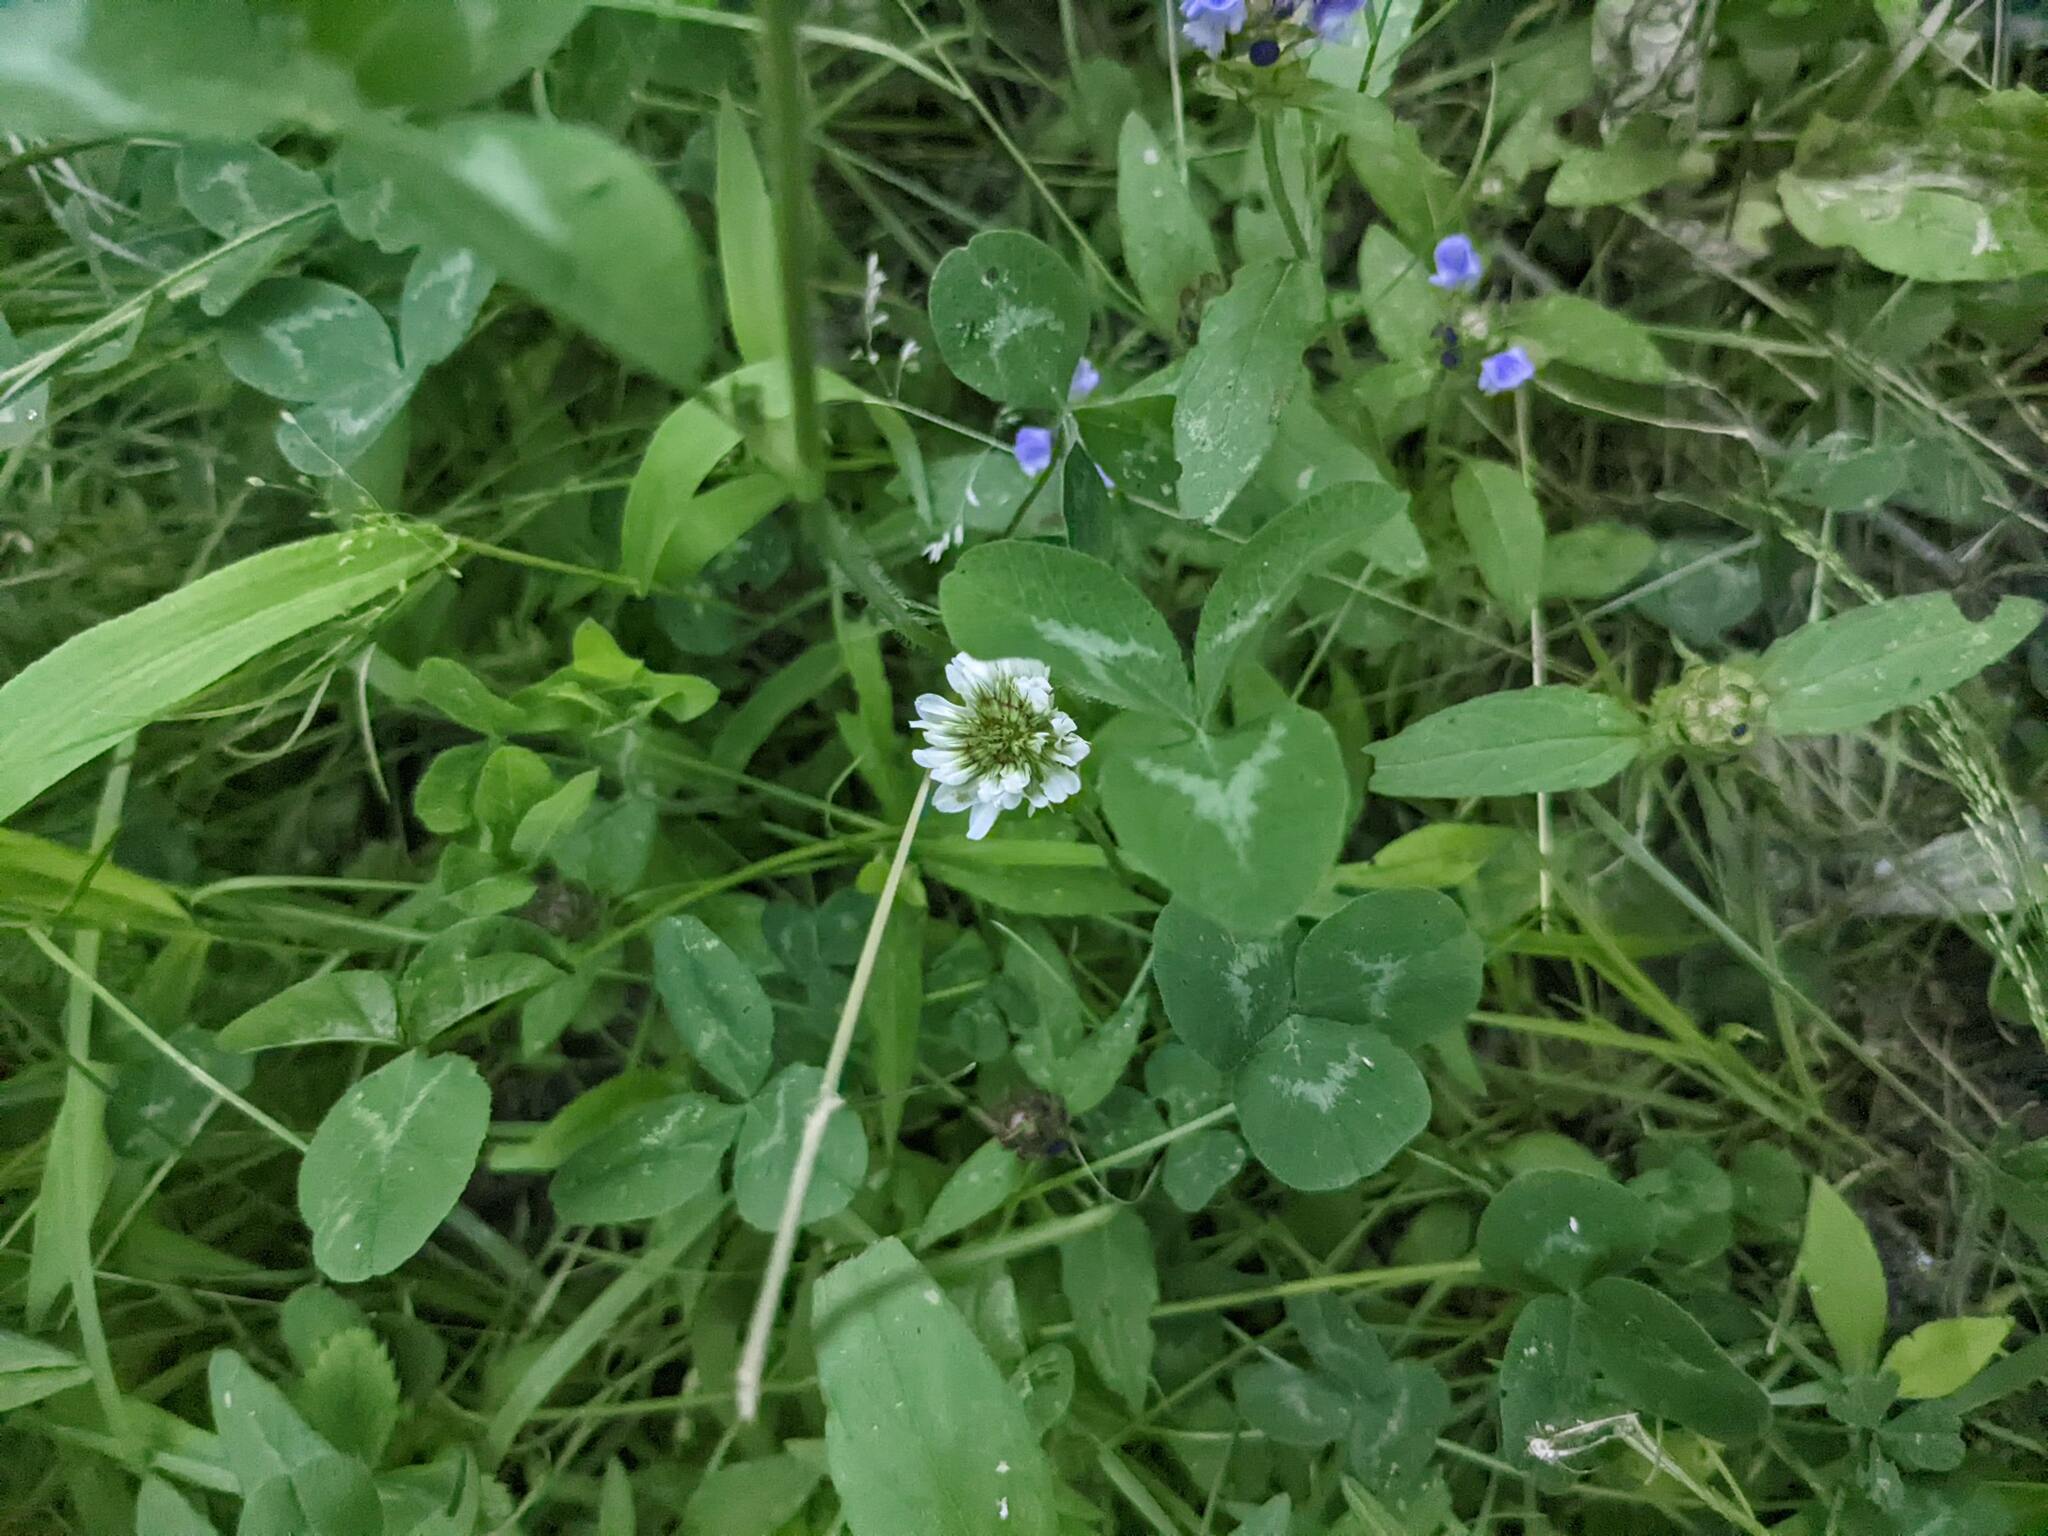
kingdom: Plantae
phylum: Tracheophyta
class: Magnoliopsida
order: Fabales
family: Fabaceae
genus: Trifolium
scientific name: Trifolium repens
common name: White clover
